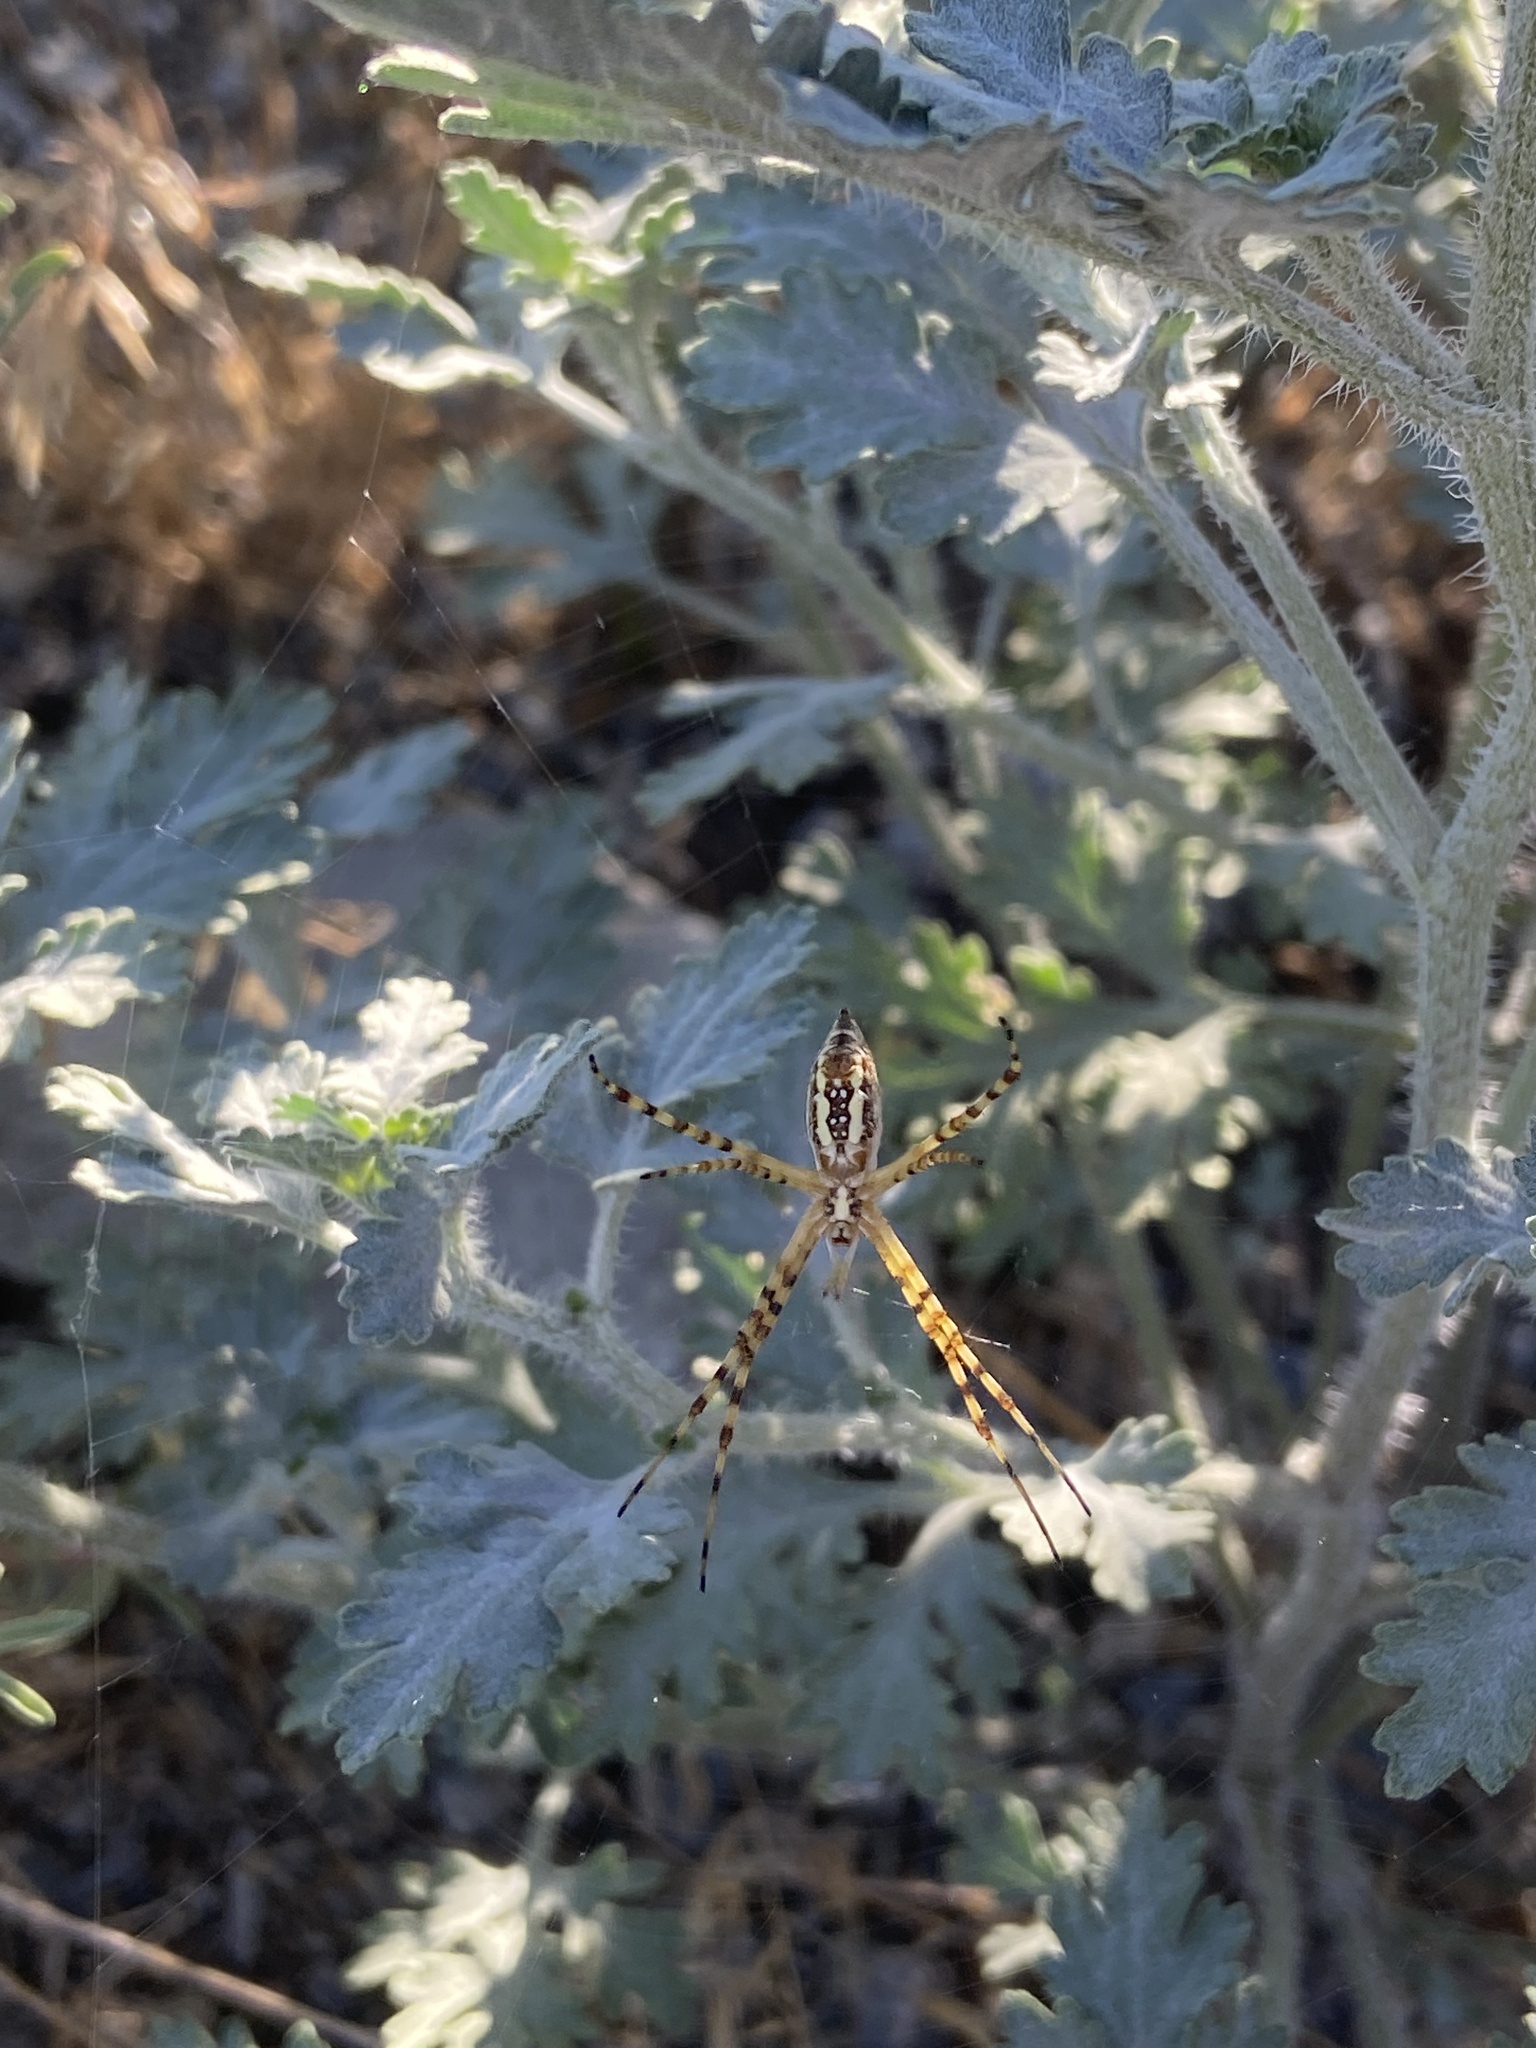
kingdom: Animalia
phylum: Arthropoda
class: Arachnida
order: Araneae
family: Araneidae
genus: Argiope
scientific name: Argiope trifasciata
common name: Banded garden spider
